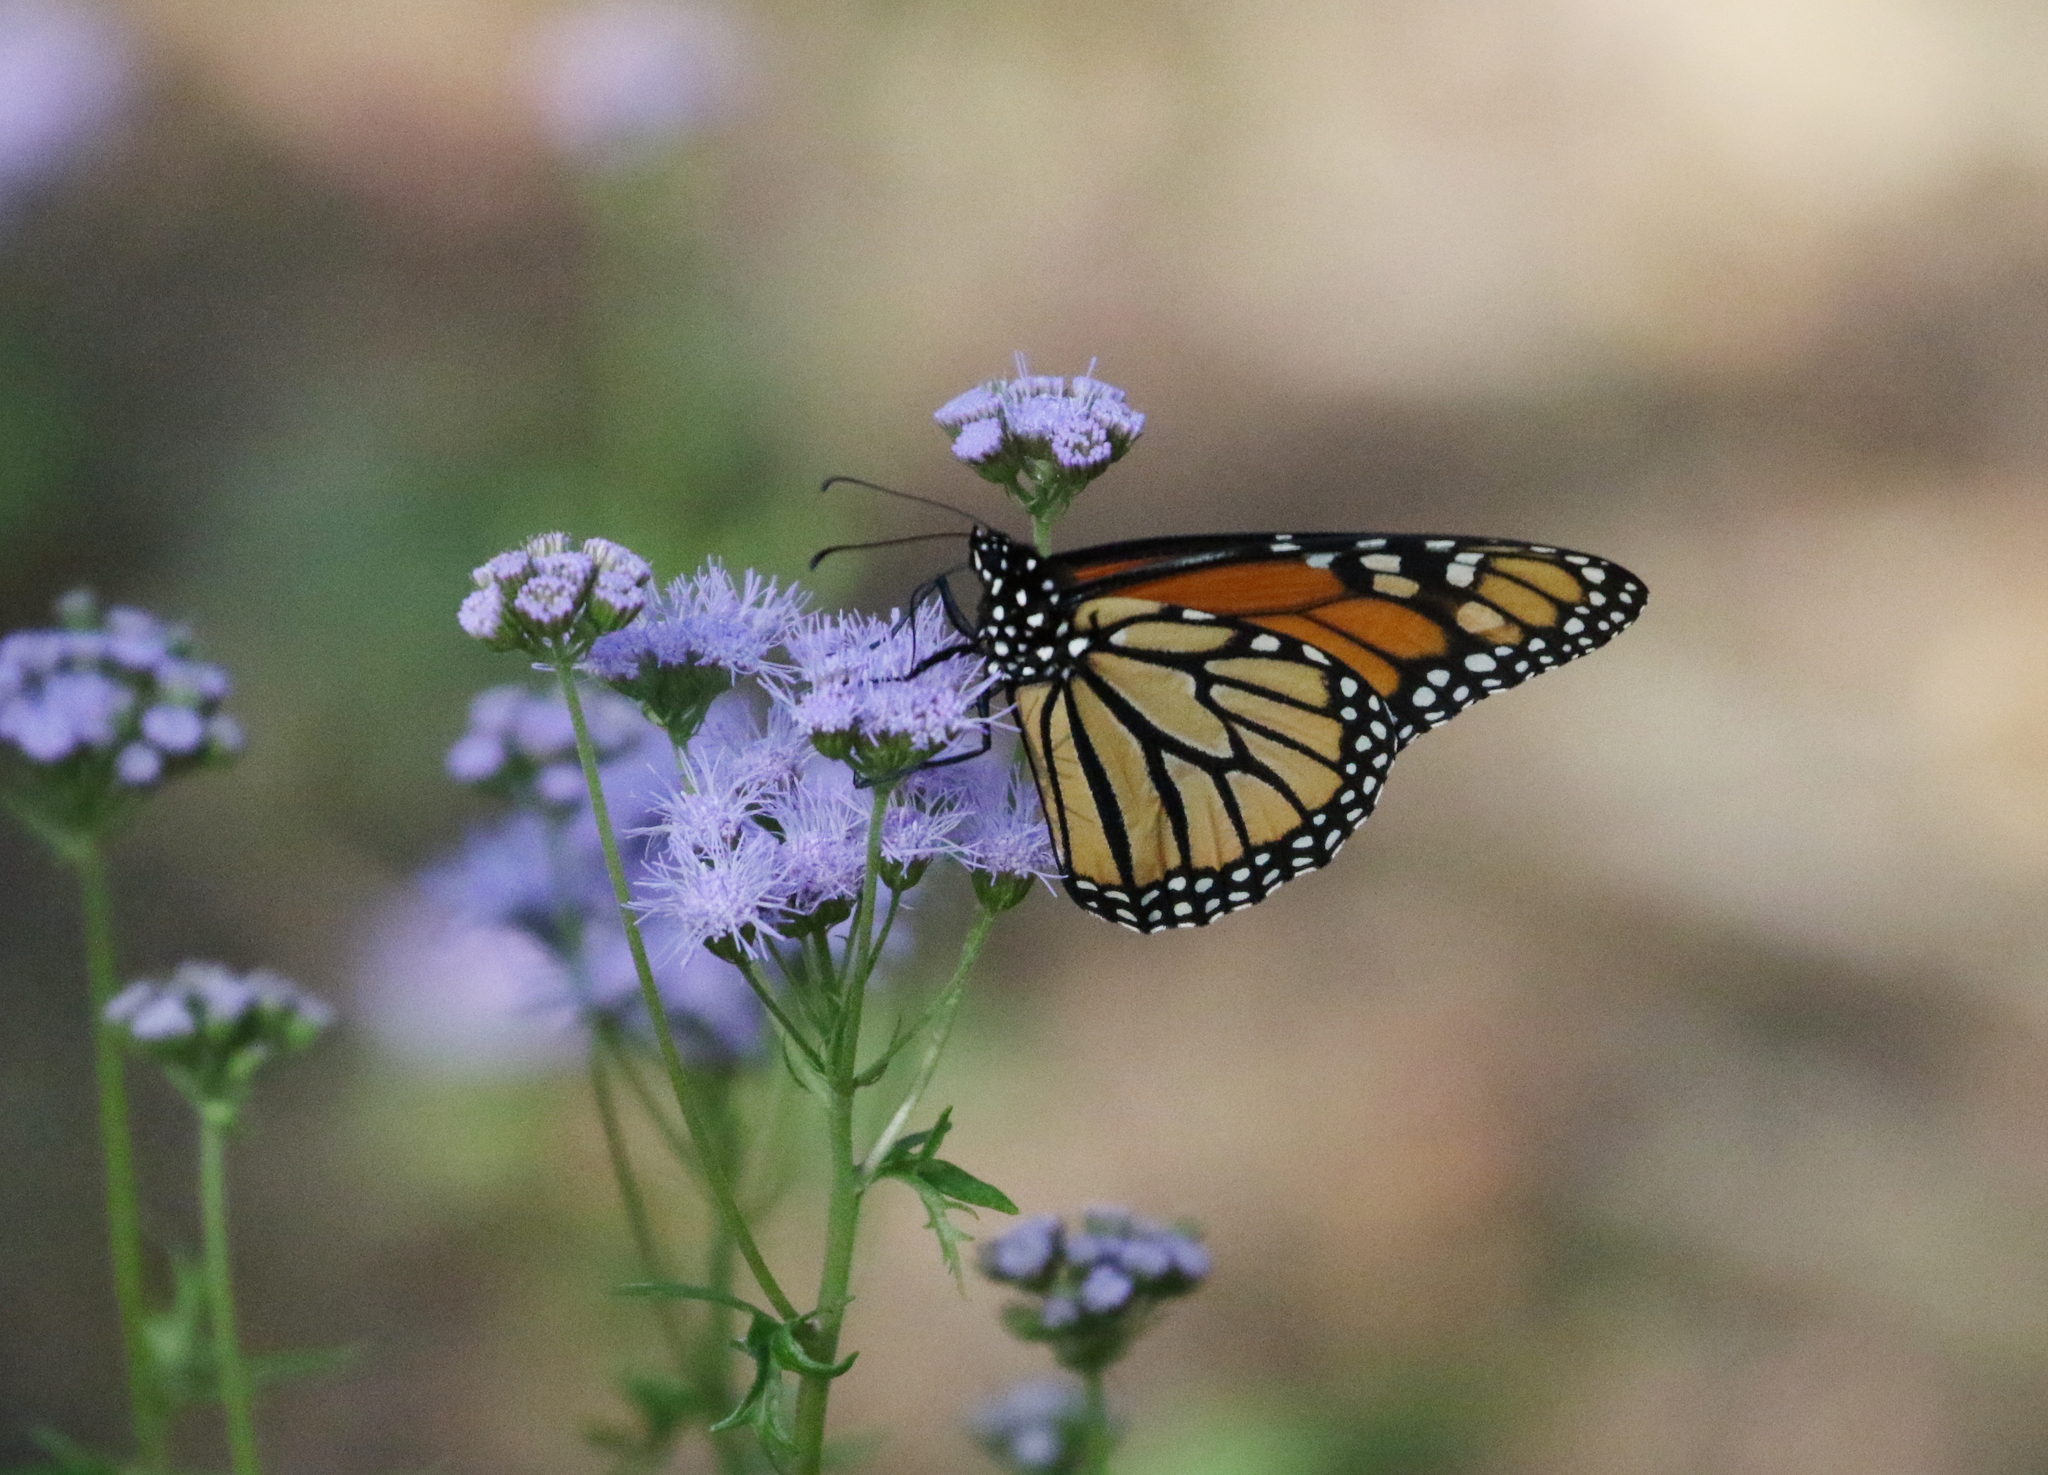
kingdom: Animalia
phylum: Arthropoda
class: Insecta
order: Lepidoptera
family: Nymphalidae
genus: Danaus
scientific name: Danaus plexippus
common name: Monarch
